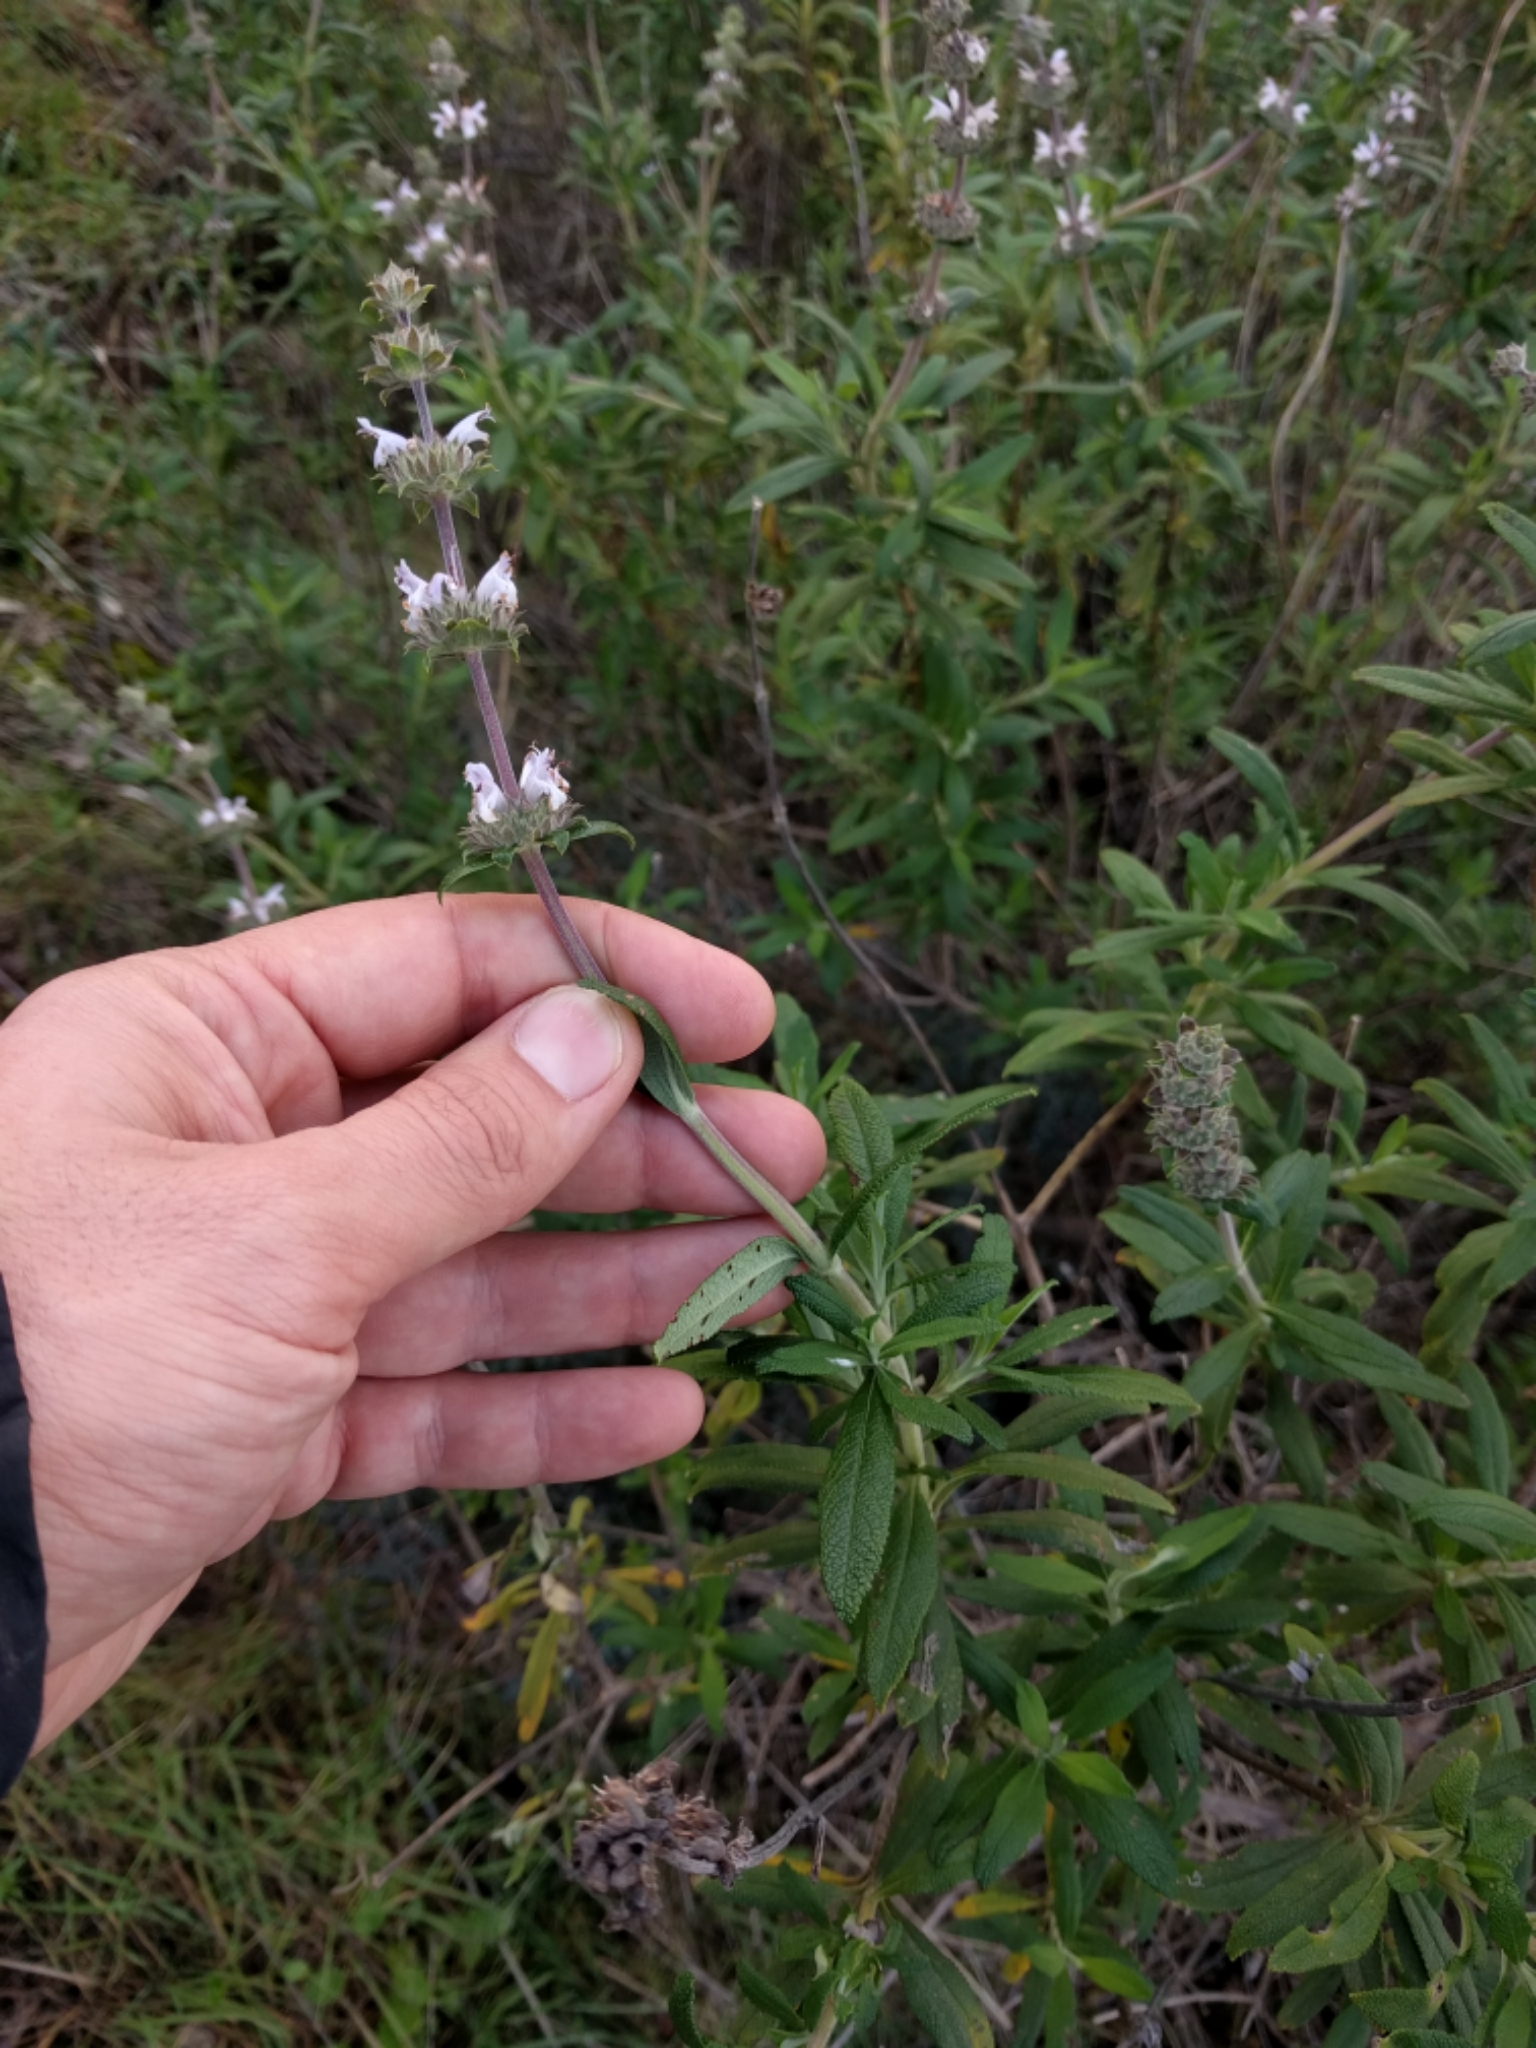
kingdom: Plantae
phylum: Tracheophyta
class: Magnoliopsida
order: Lamiales
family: Lamiaceae
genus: Salvia
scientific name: Salvia mellifera
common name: Black sage
